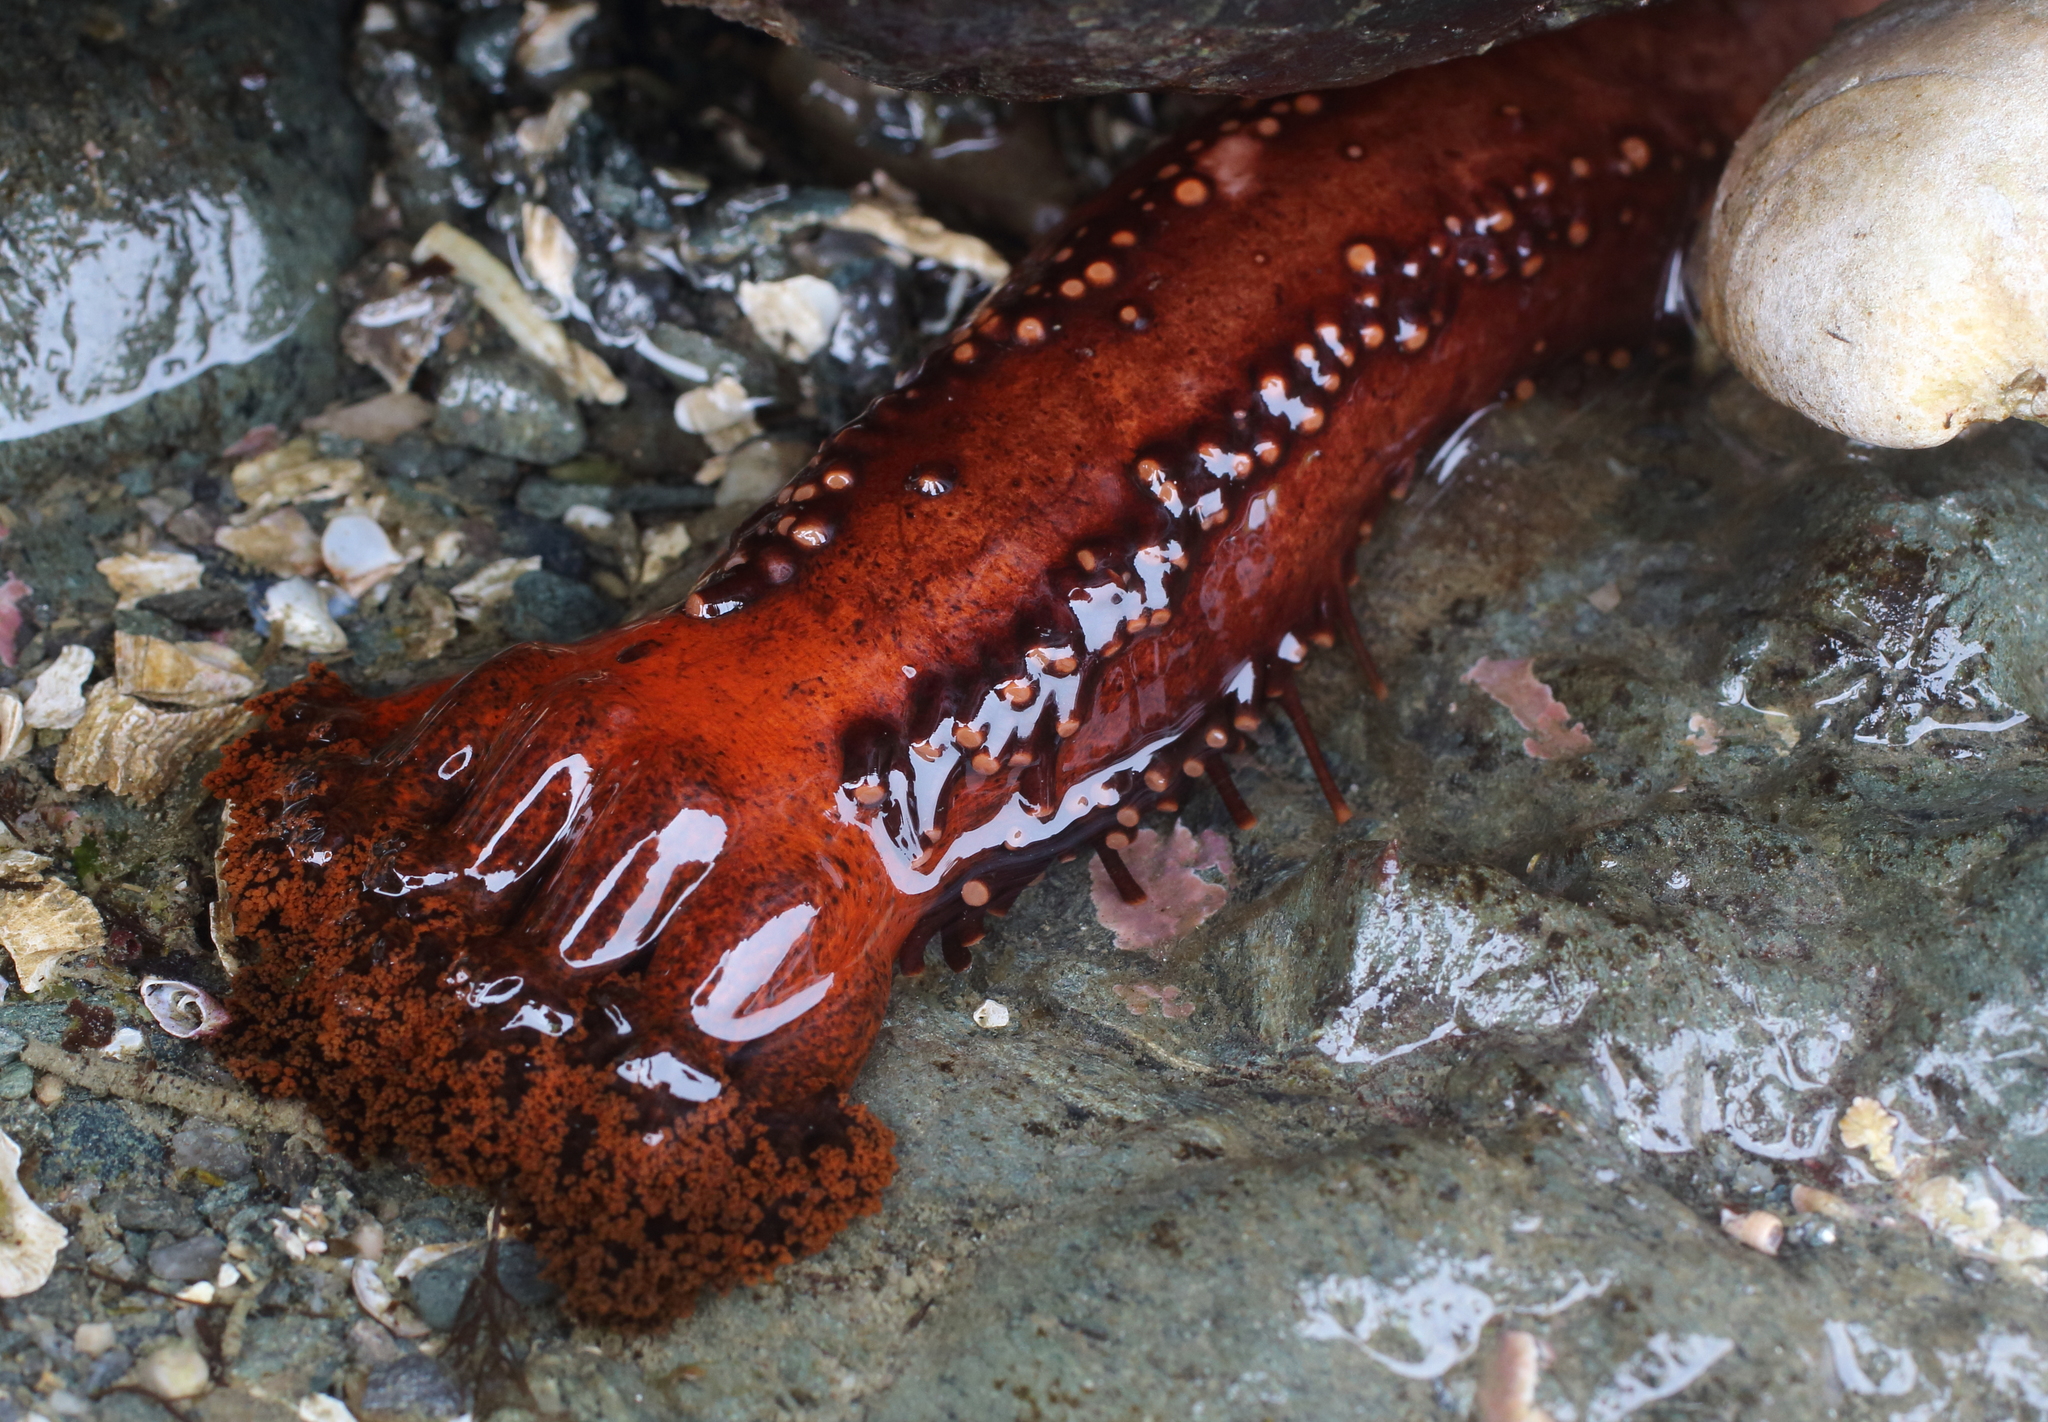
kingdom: Animalia
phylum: Echinodermata
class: Holothuroidea
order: Dendrochirotida
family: Cucumariidae
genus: Cucumaria
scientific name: Cucumaria miniata
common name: Orange sea cucumber
